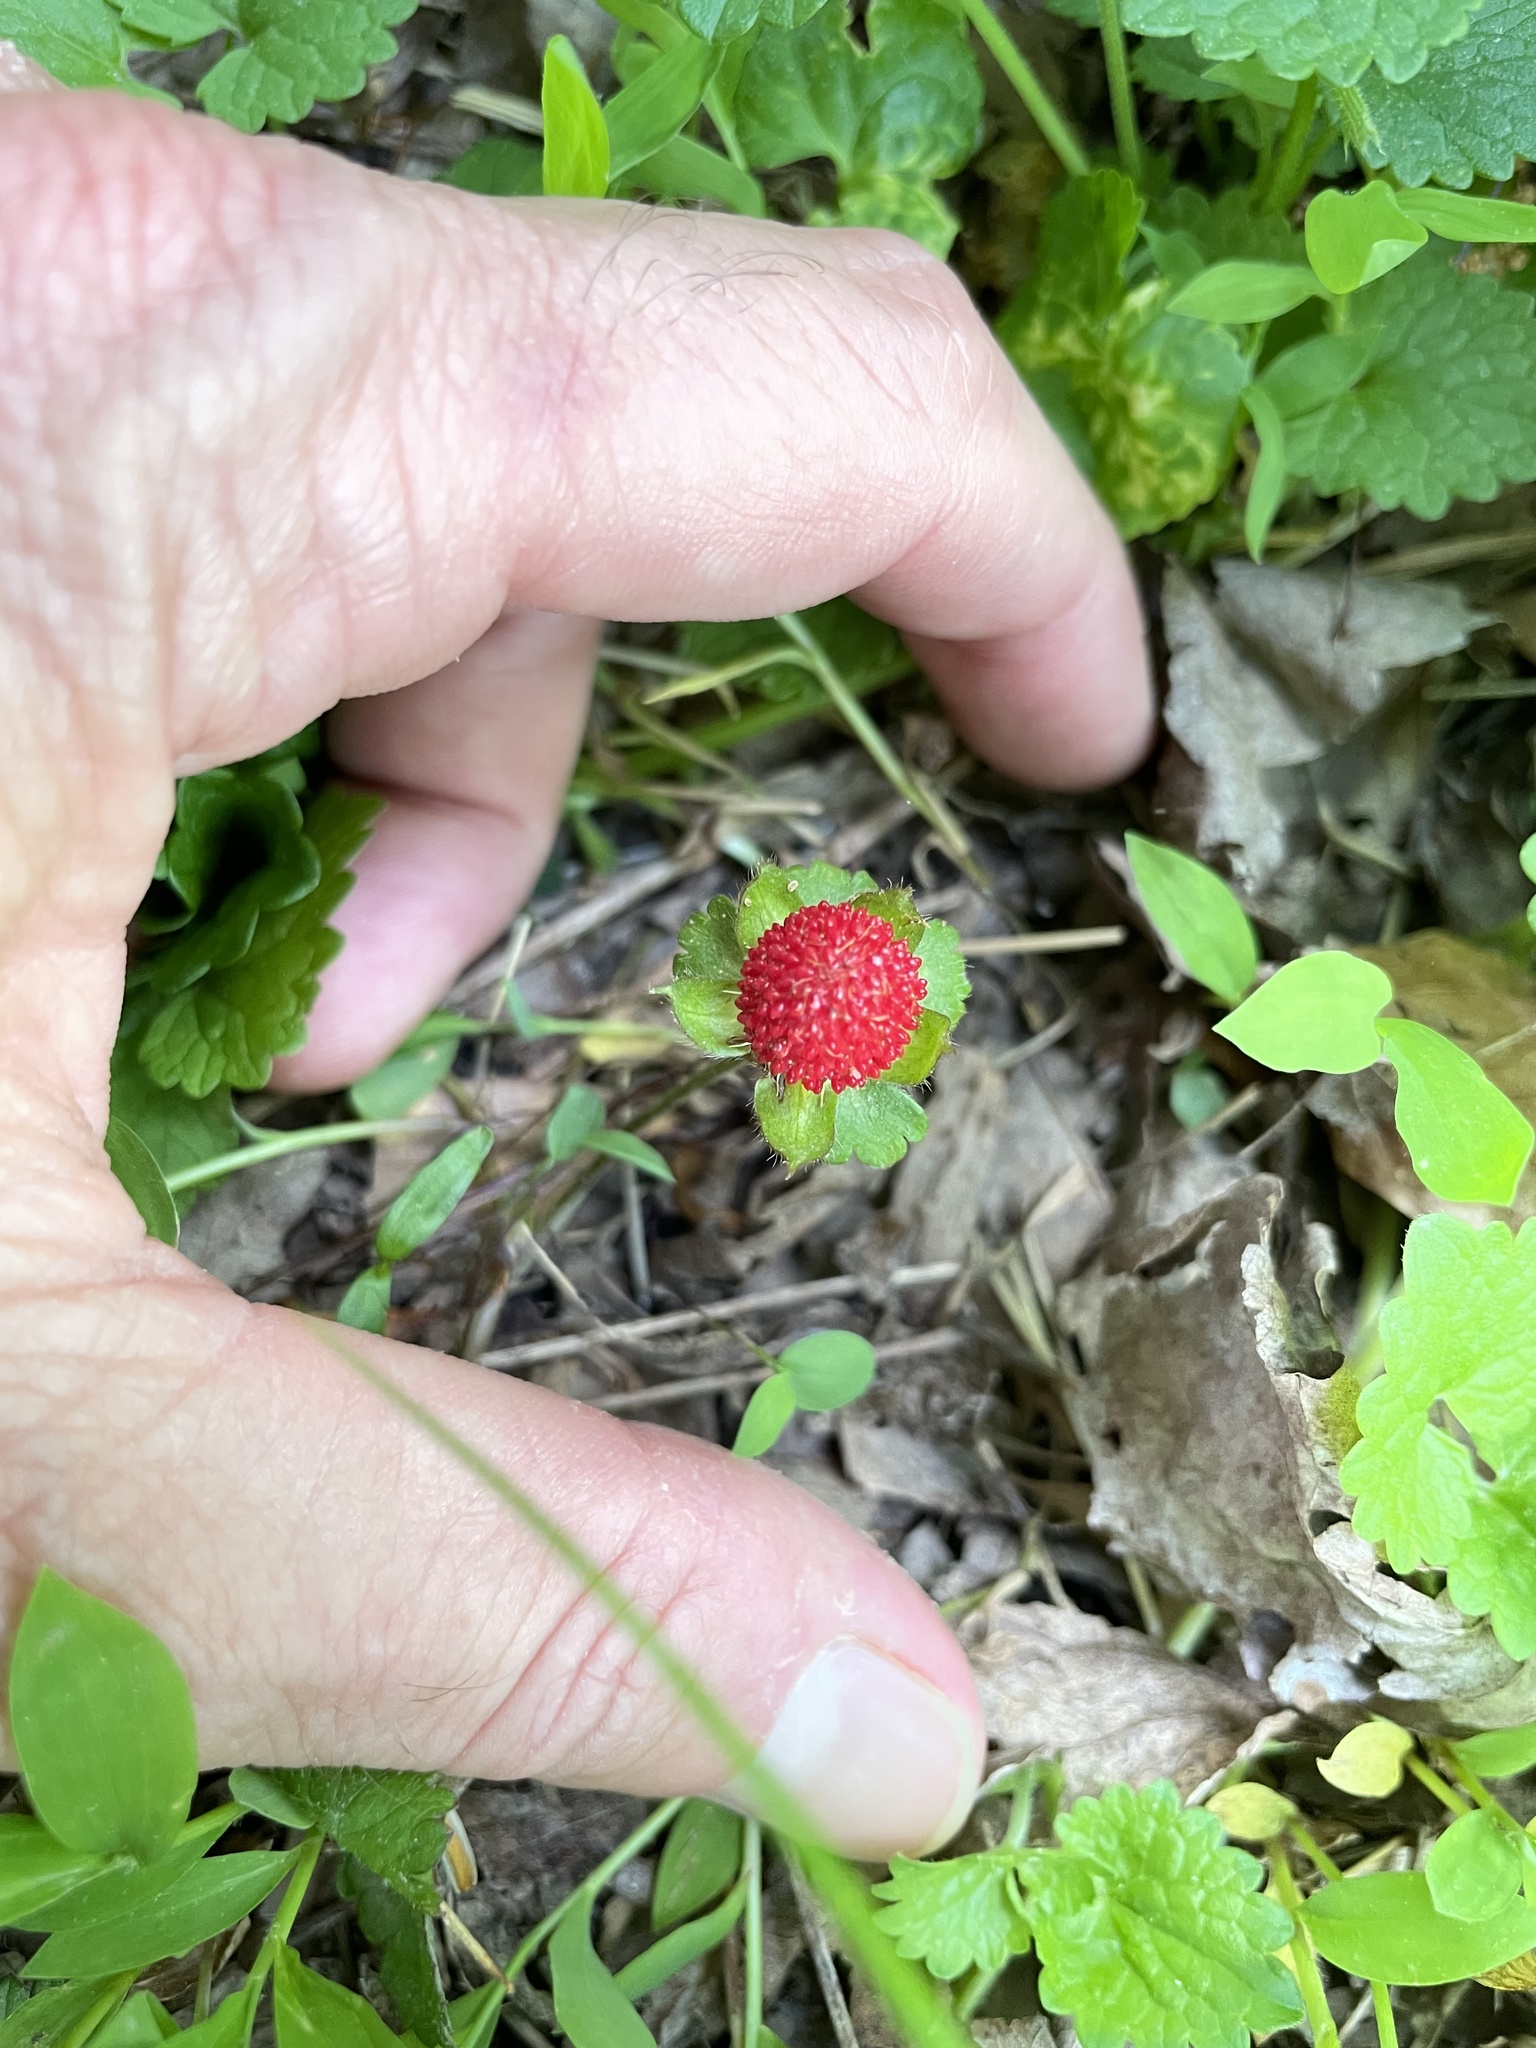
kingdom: Plantae
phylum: Tracheophyta
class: Magnoliopsida
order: Rosales
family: Rosaceae
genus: Potentilla
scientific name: Potentilla indica
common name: Yellow-flowered strawberry
